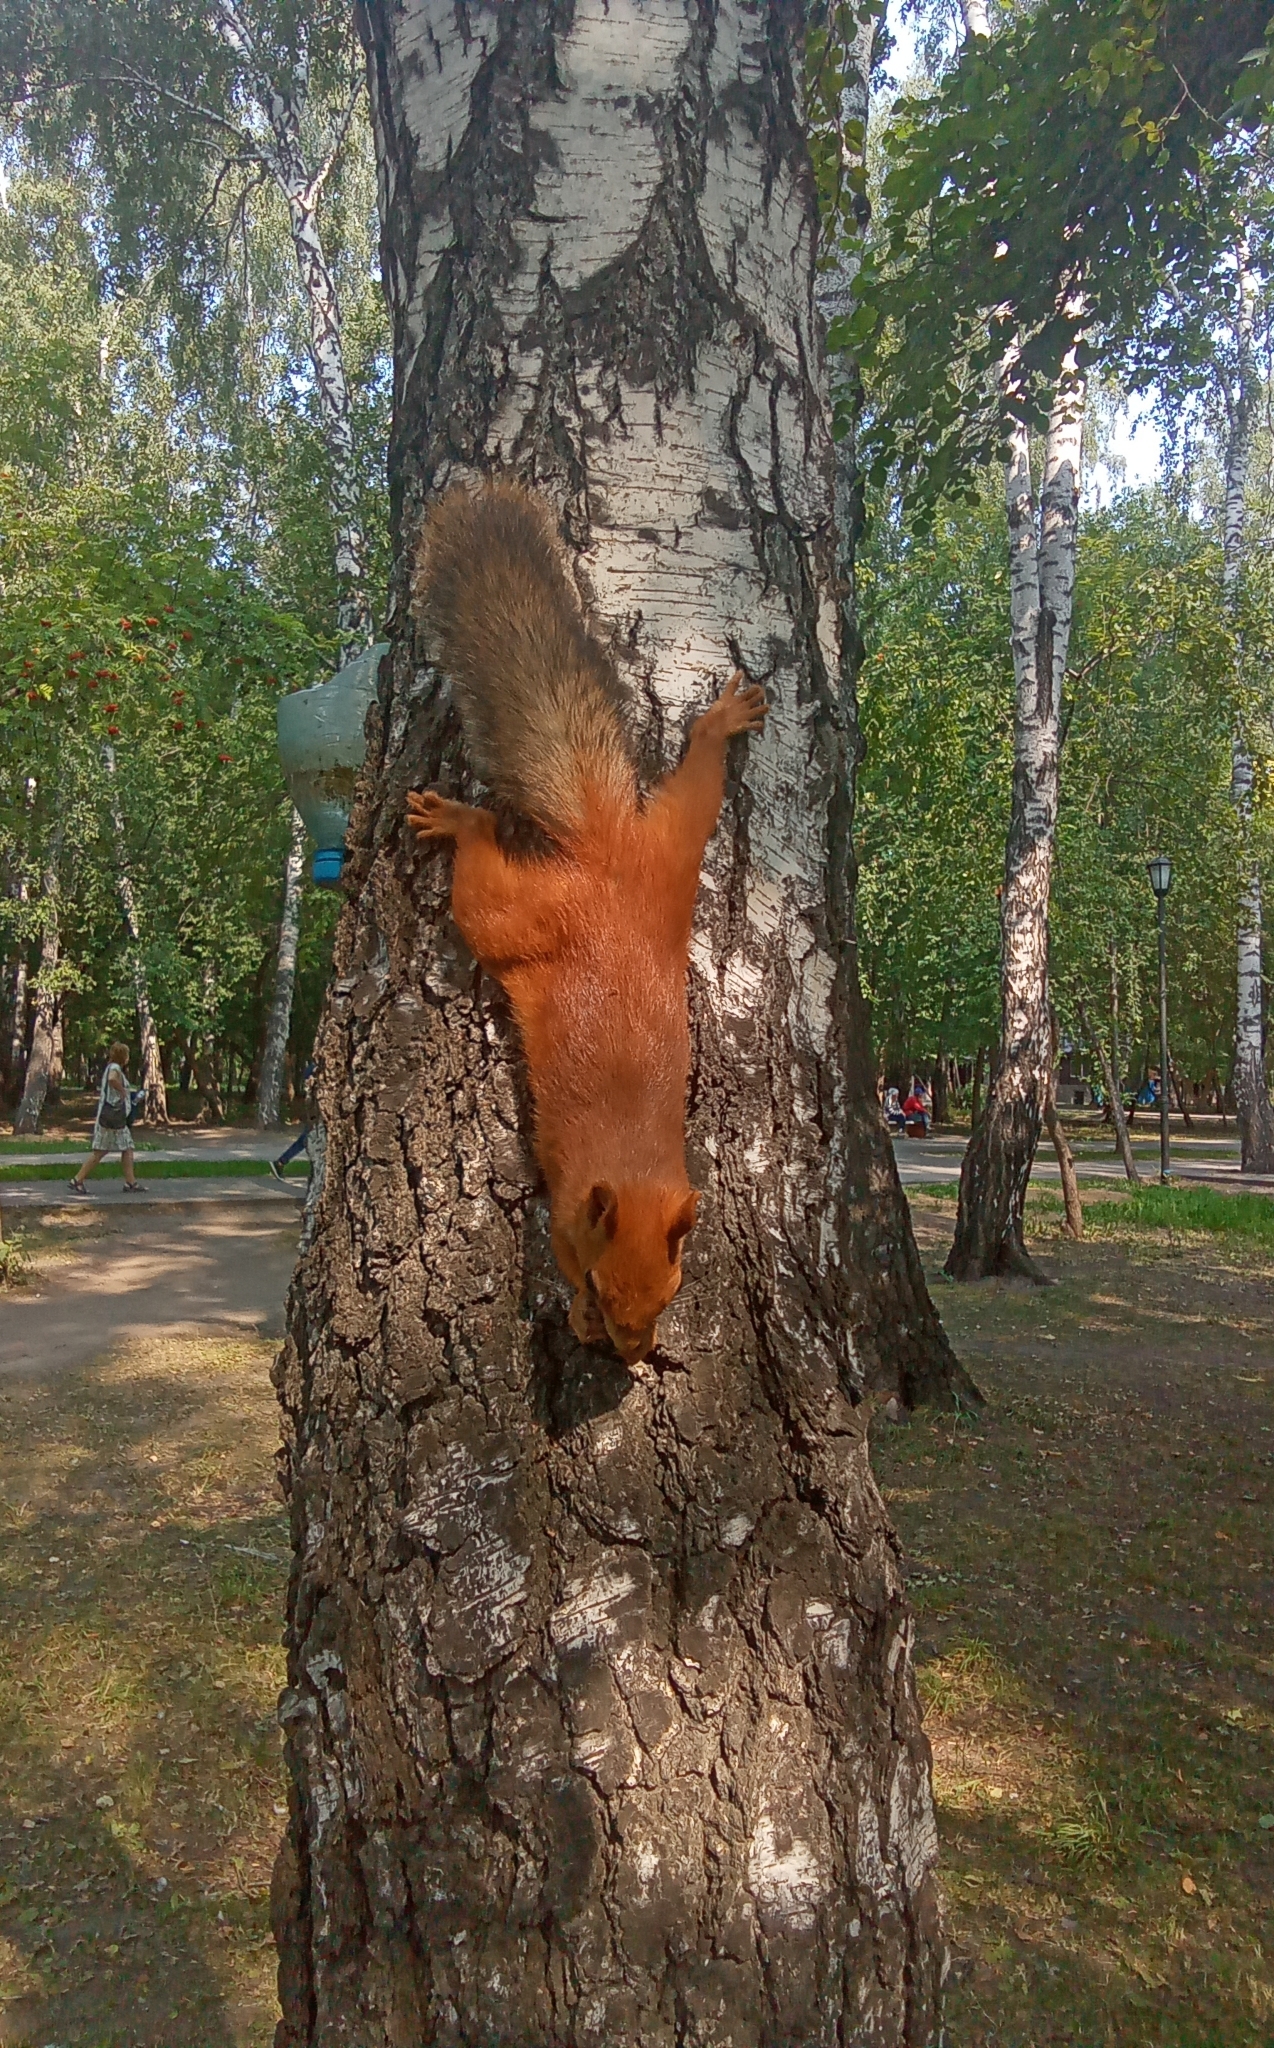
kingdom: Animalia
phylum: Chordata
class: Mammalia
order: Rodentia
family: Sciuridae
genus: Sciurus
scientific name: Sciurus vulgaris
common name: Eurasian red squirrel
